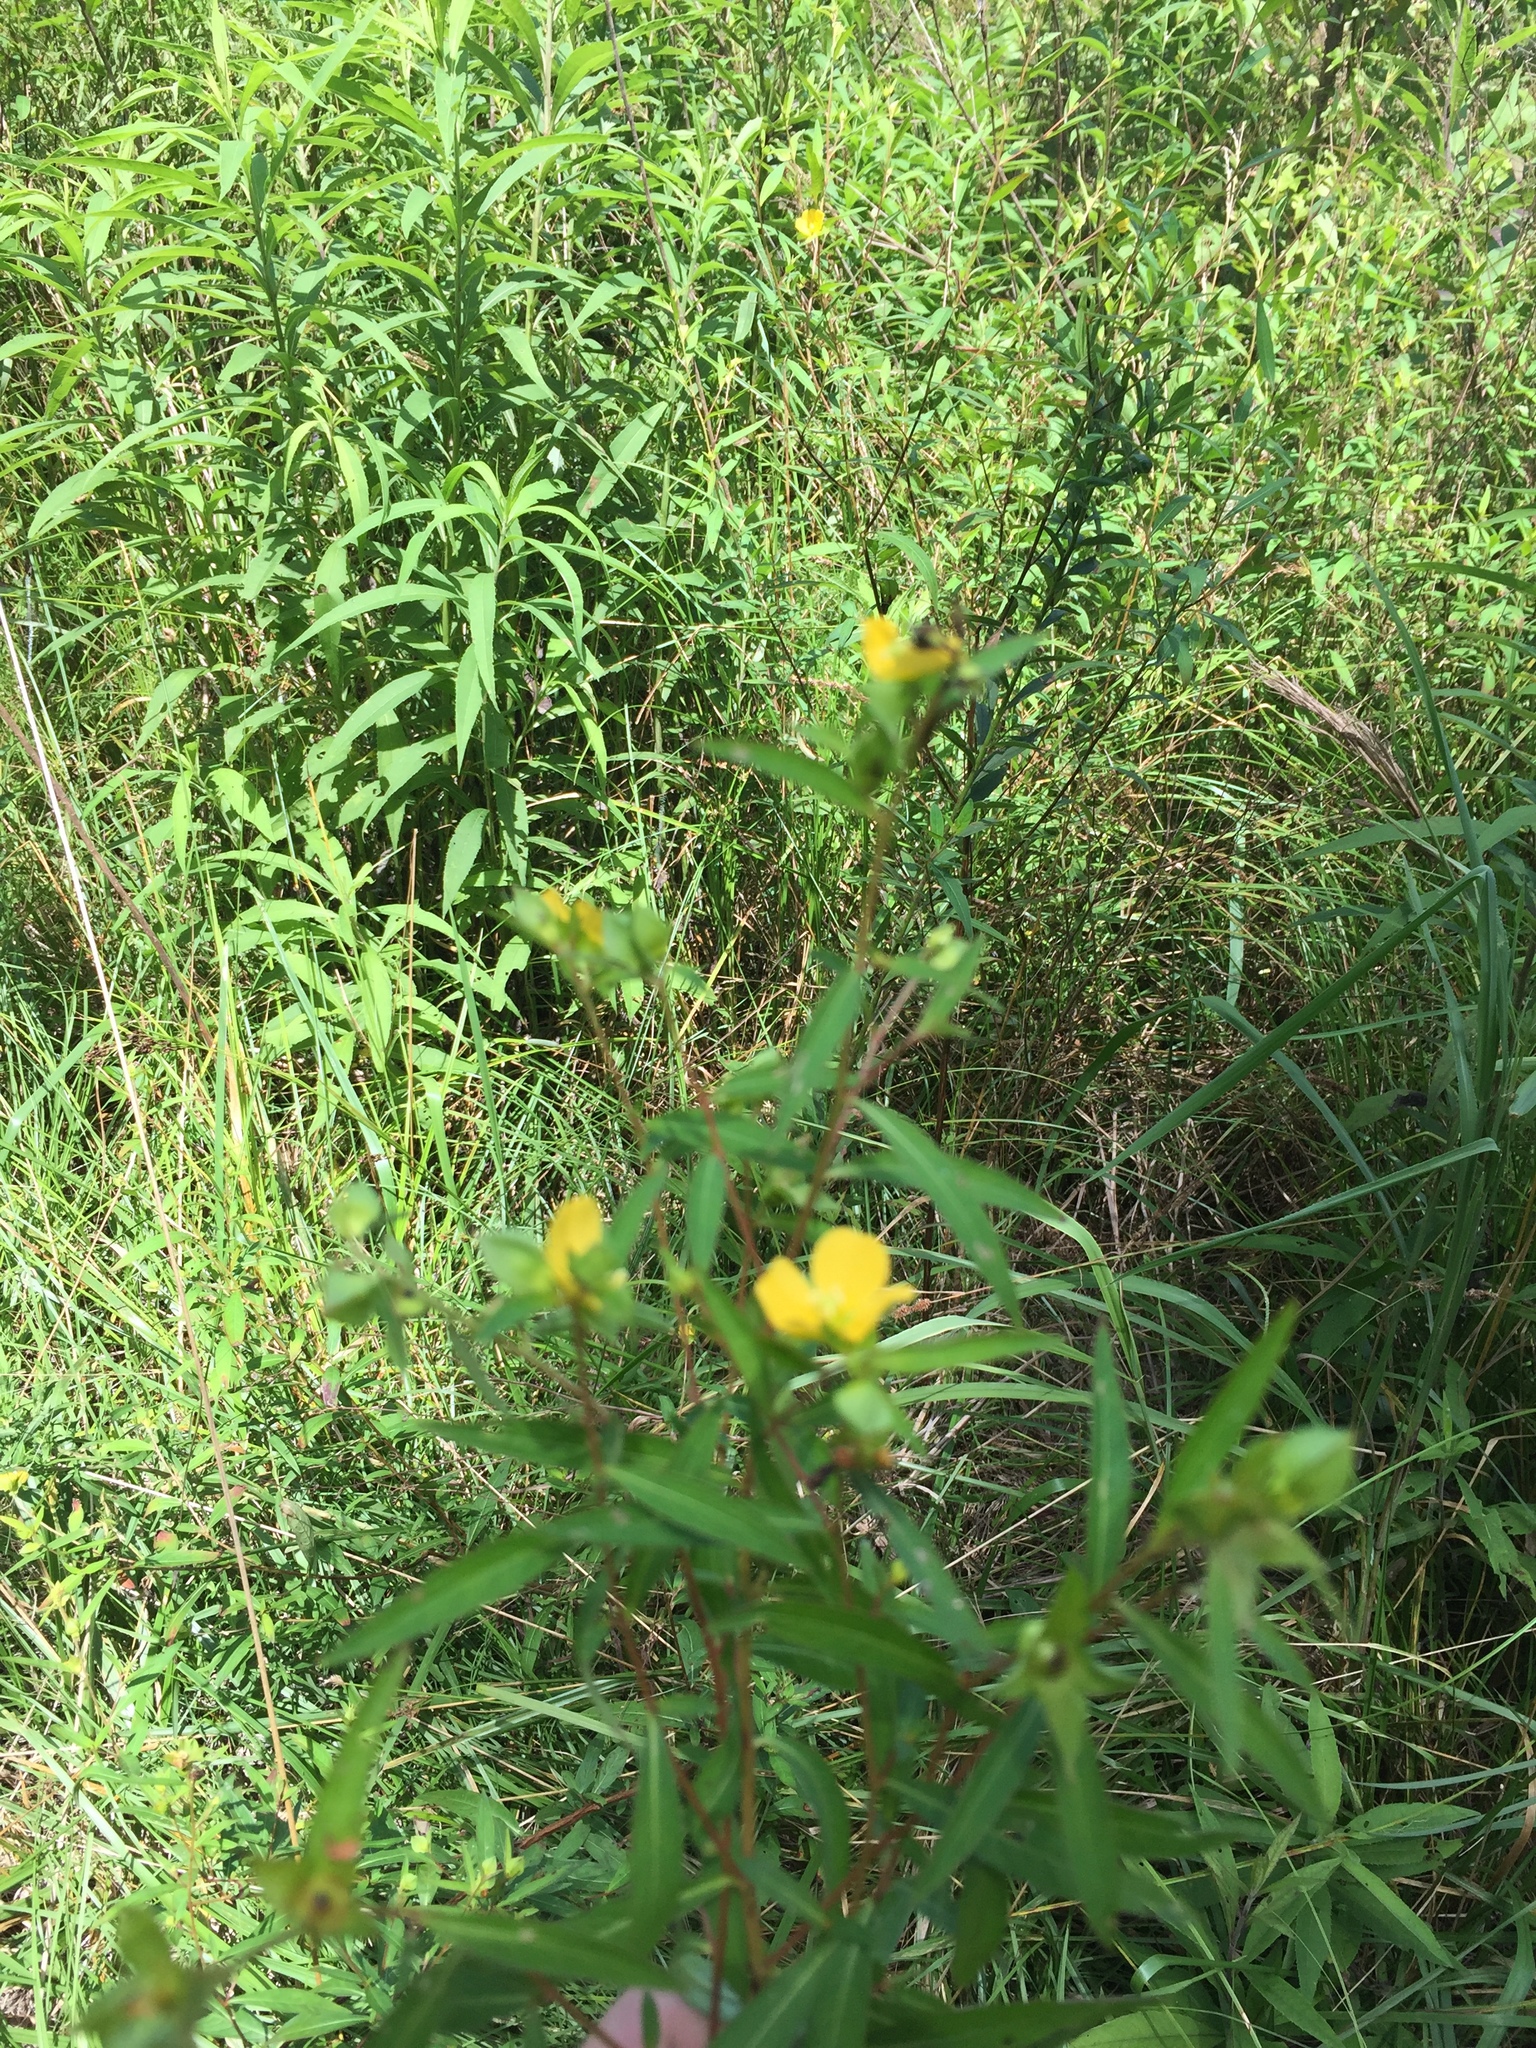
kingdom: Plantae
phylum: Tracheophyta
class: Magnoliopsida
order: Myrtales
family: Onagraceae
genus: Ludwigia
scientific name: Ludwigia alternifolia
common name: Rattlebox
